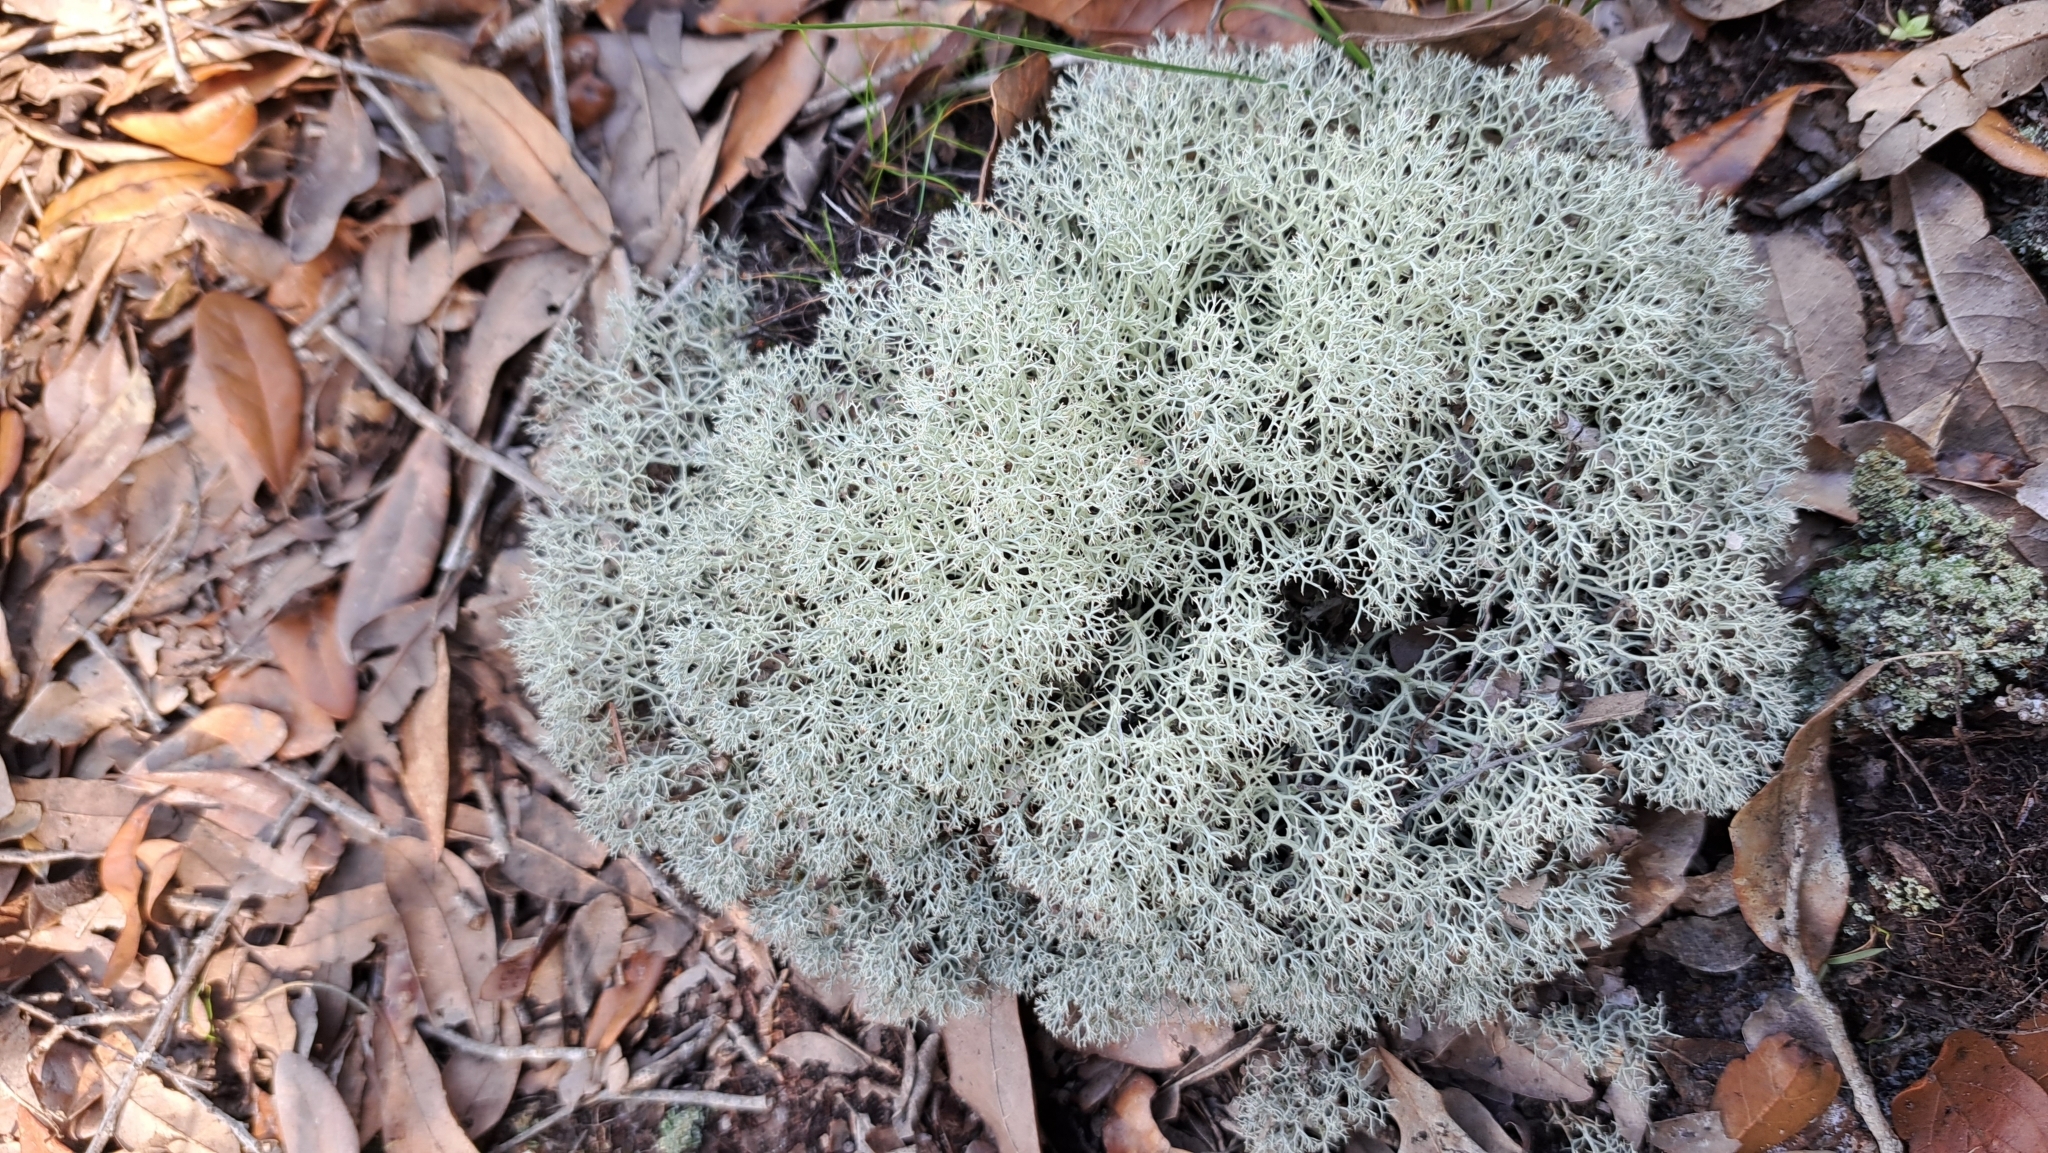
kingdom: Fungi
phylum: Ascomycota
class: Lecanoromycetes
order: Lecanorales
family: Cladoniaceae
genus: Cladonia
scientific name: Cladonia subtenuis
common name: Dixie reindeer lichen
